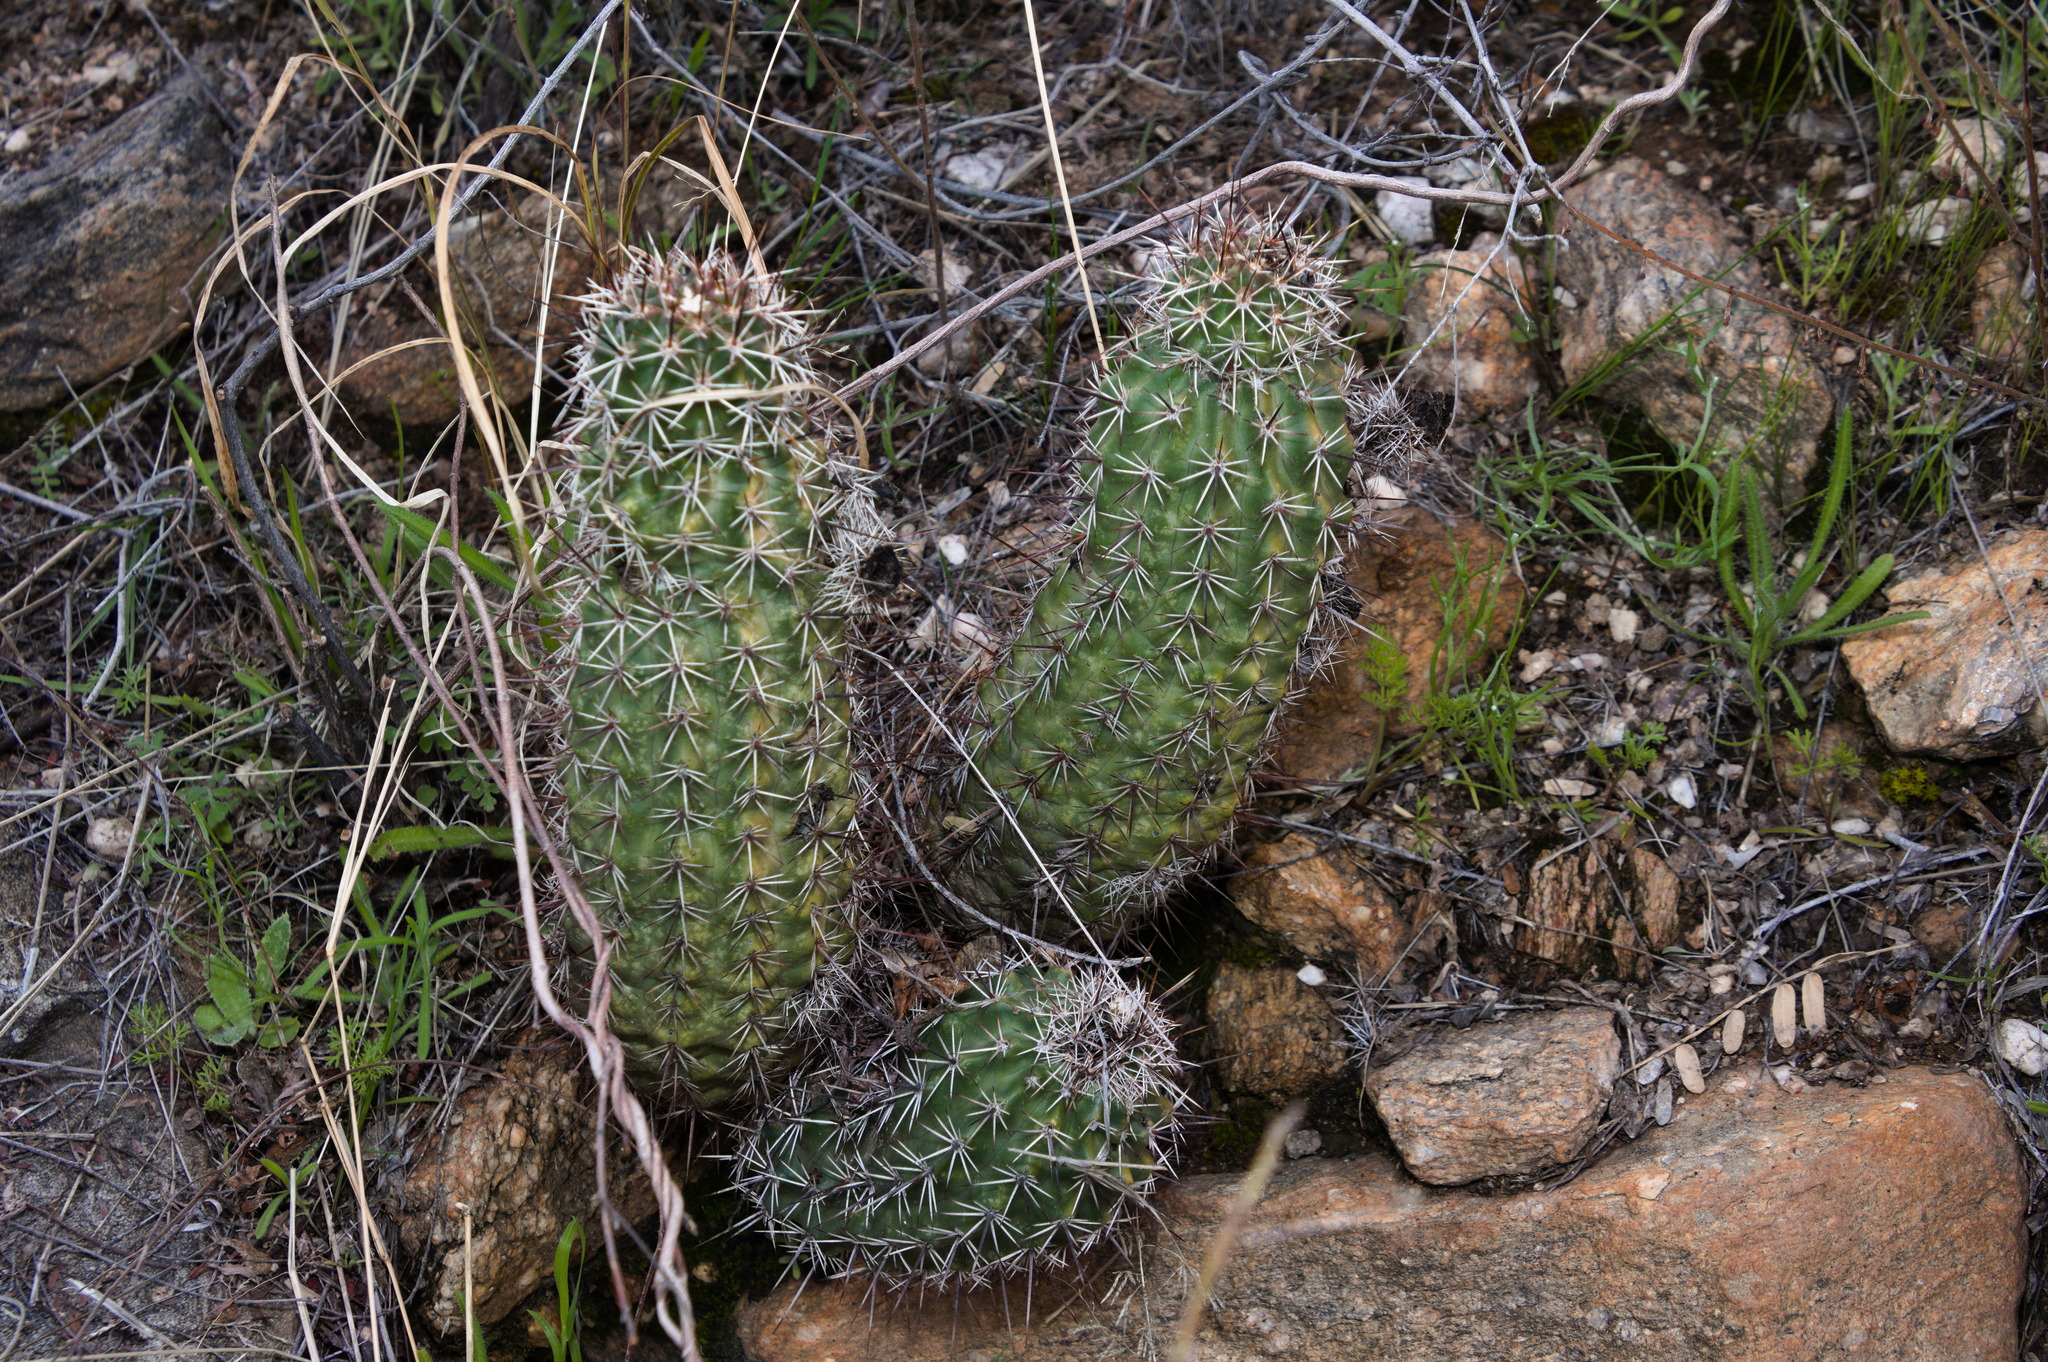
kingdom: Plantae
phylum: Tracheophyta
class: Magnoliopsida
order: Caryophyllales
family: Cactaceae
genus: Echinocereus
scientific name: Echinocereus fasciculatus
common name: Bundle hedgehog
